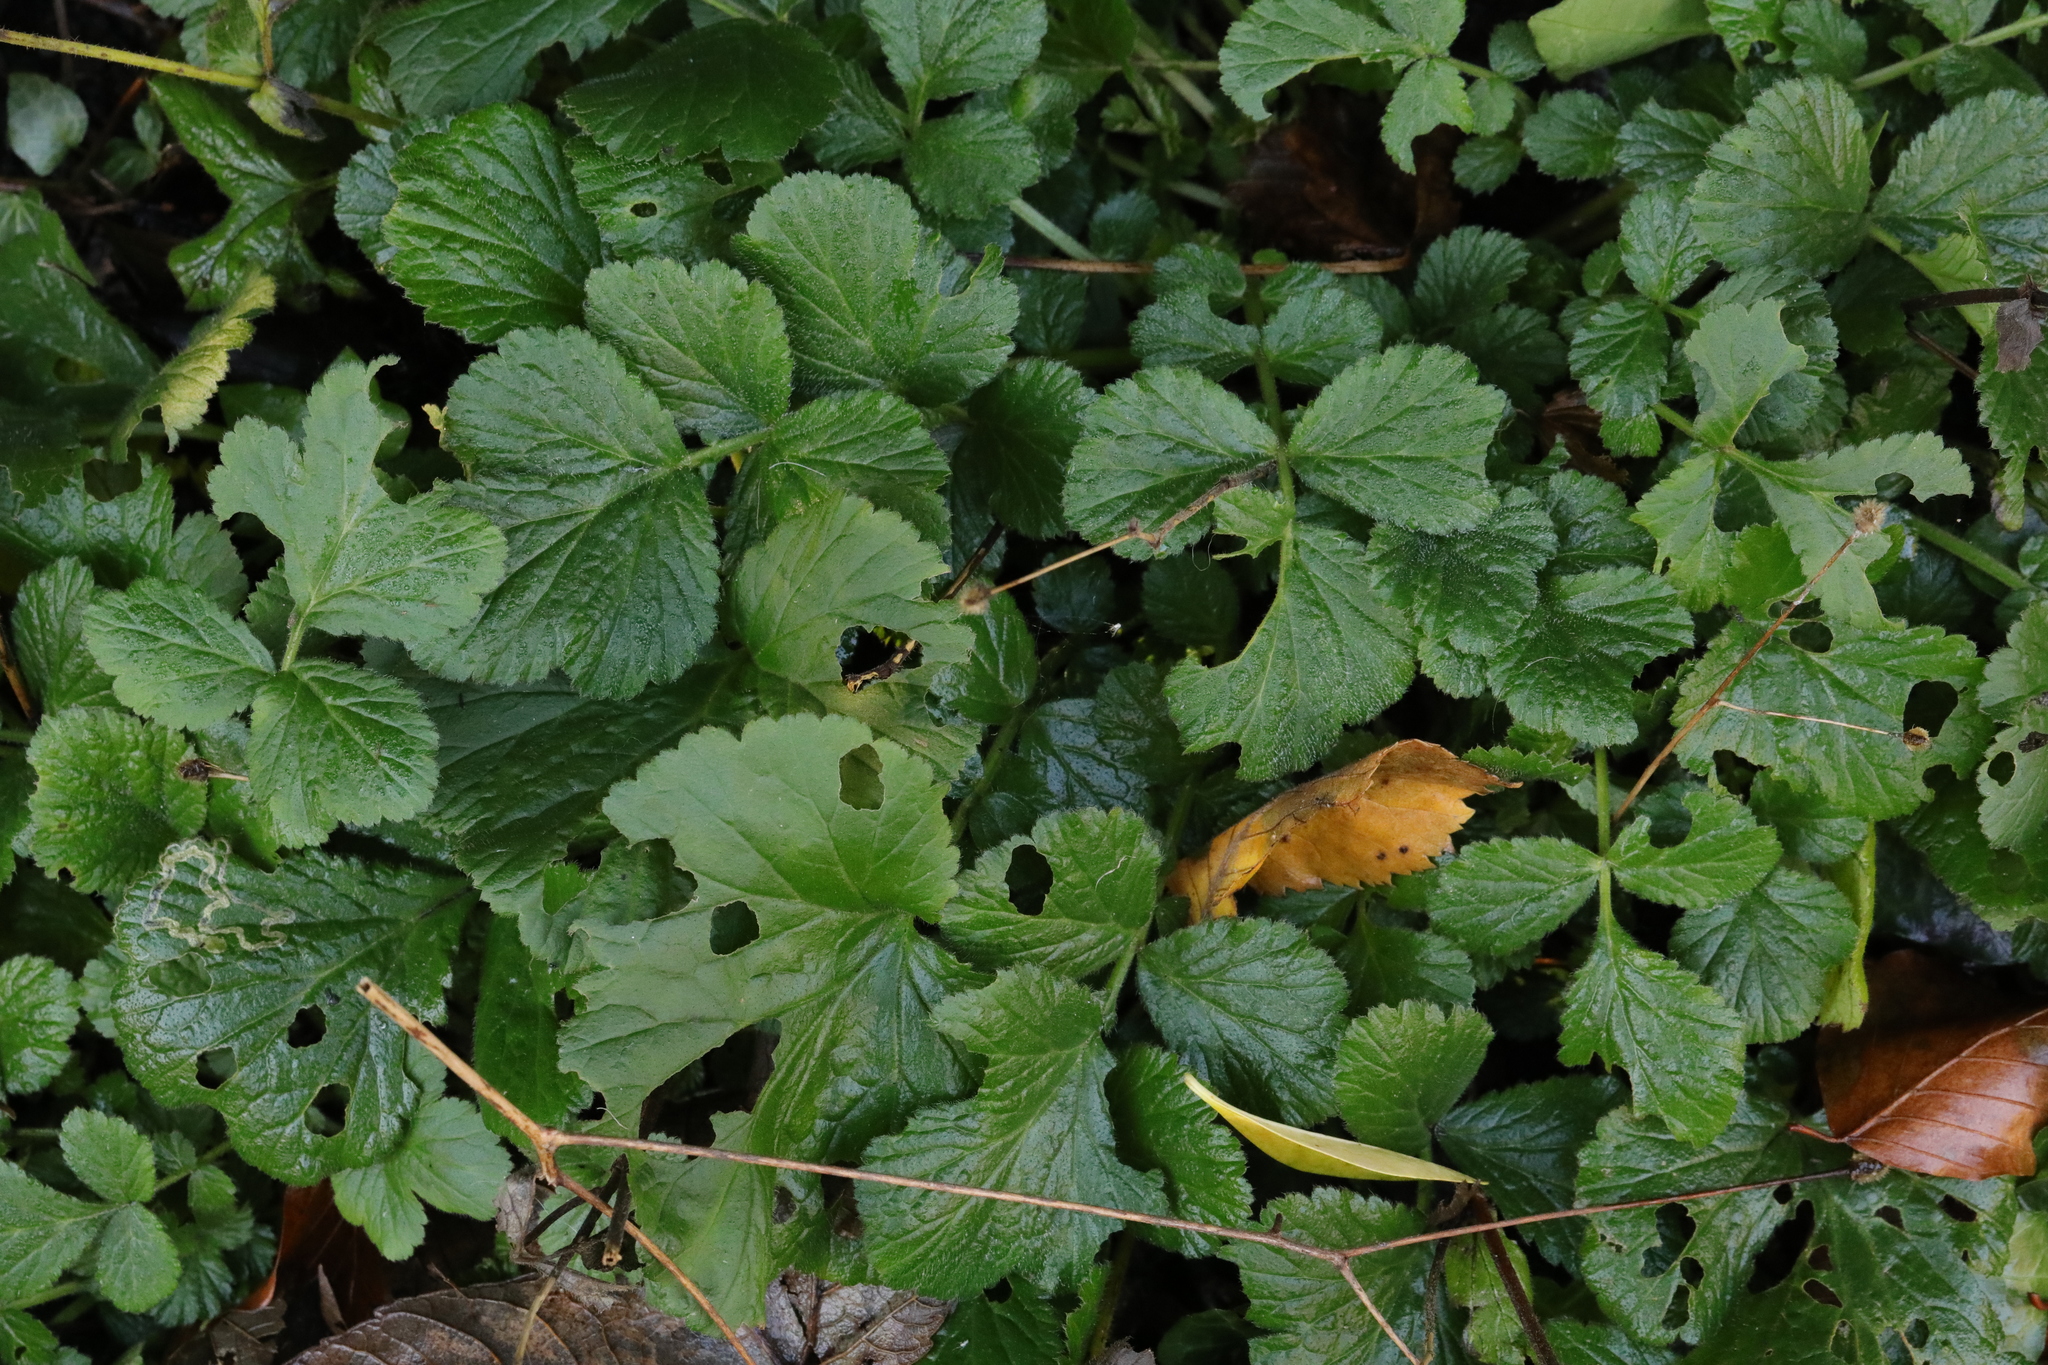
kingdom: Plantae
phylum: Tracheophyta
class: Magnoliopsida
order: Rosales
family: Rosaceae
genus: Geum
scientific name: Geum urbanum
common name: Wood avens
